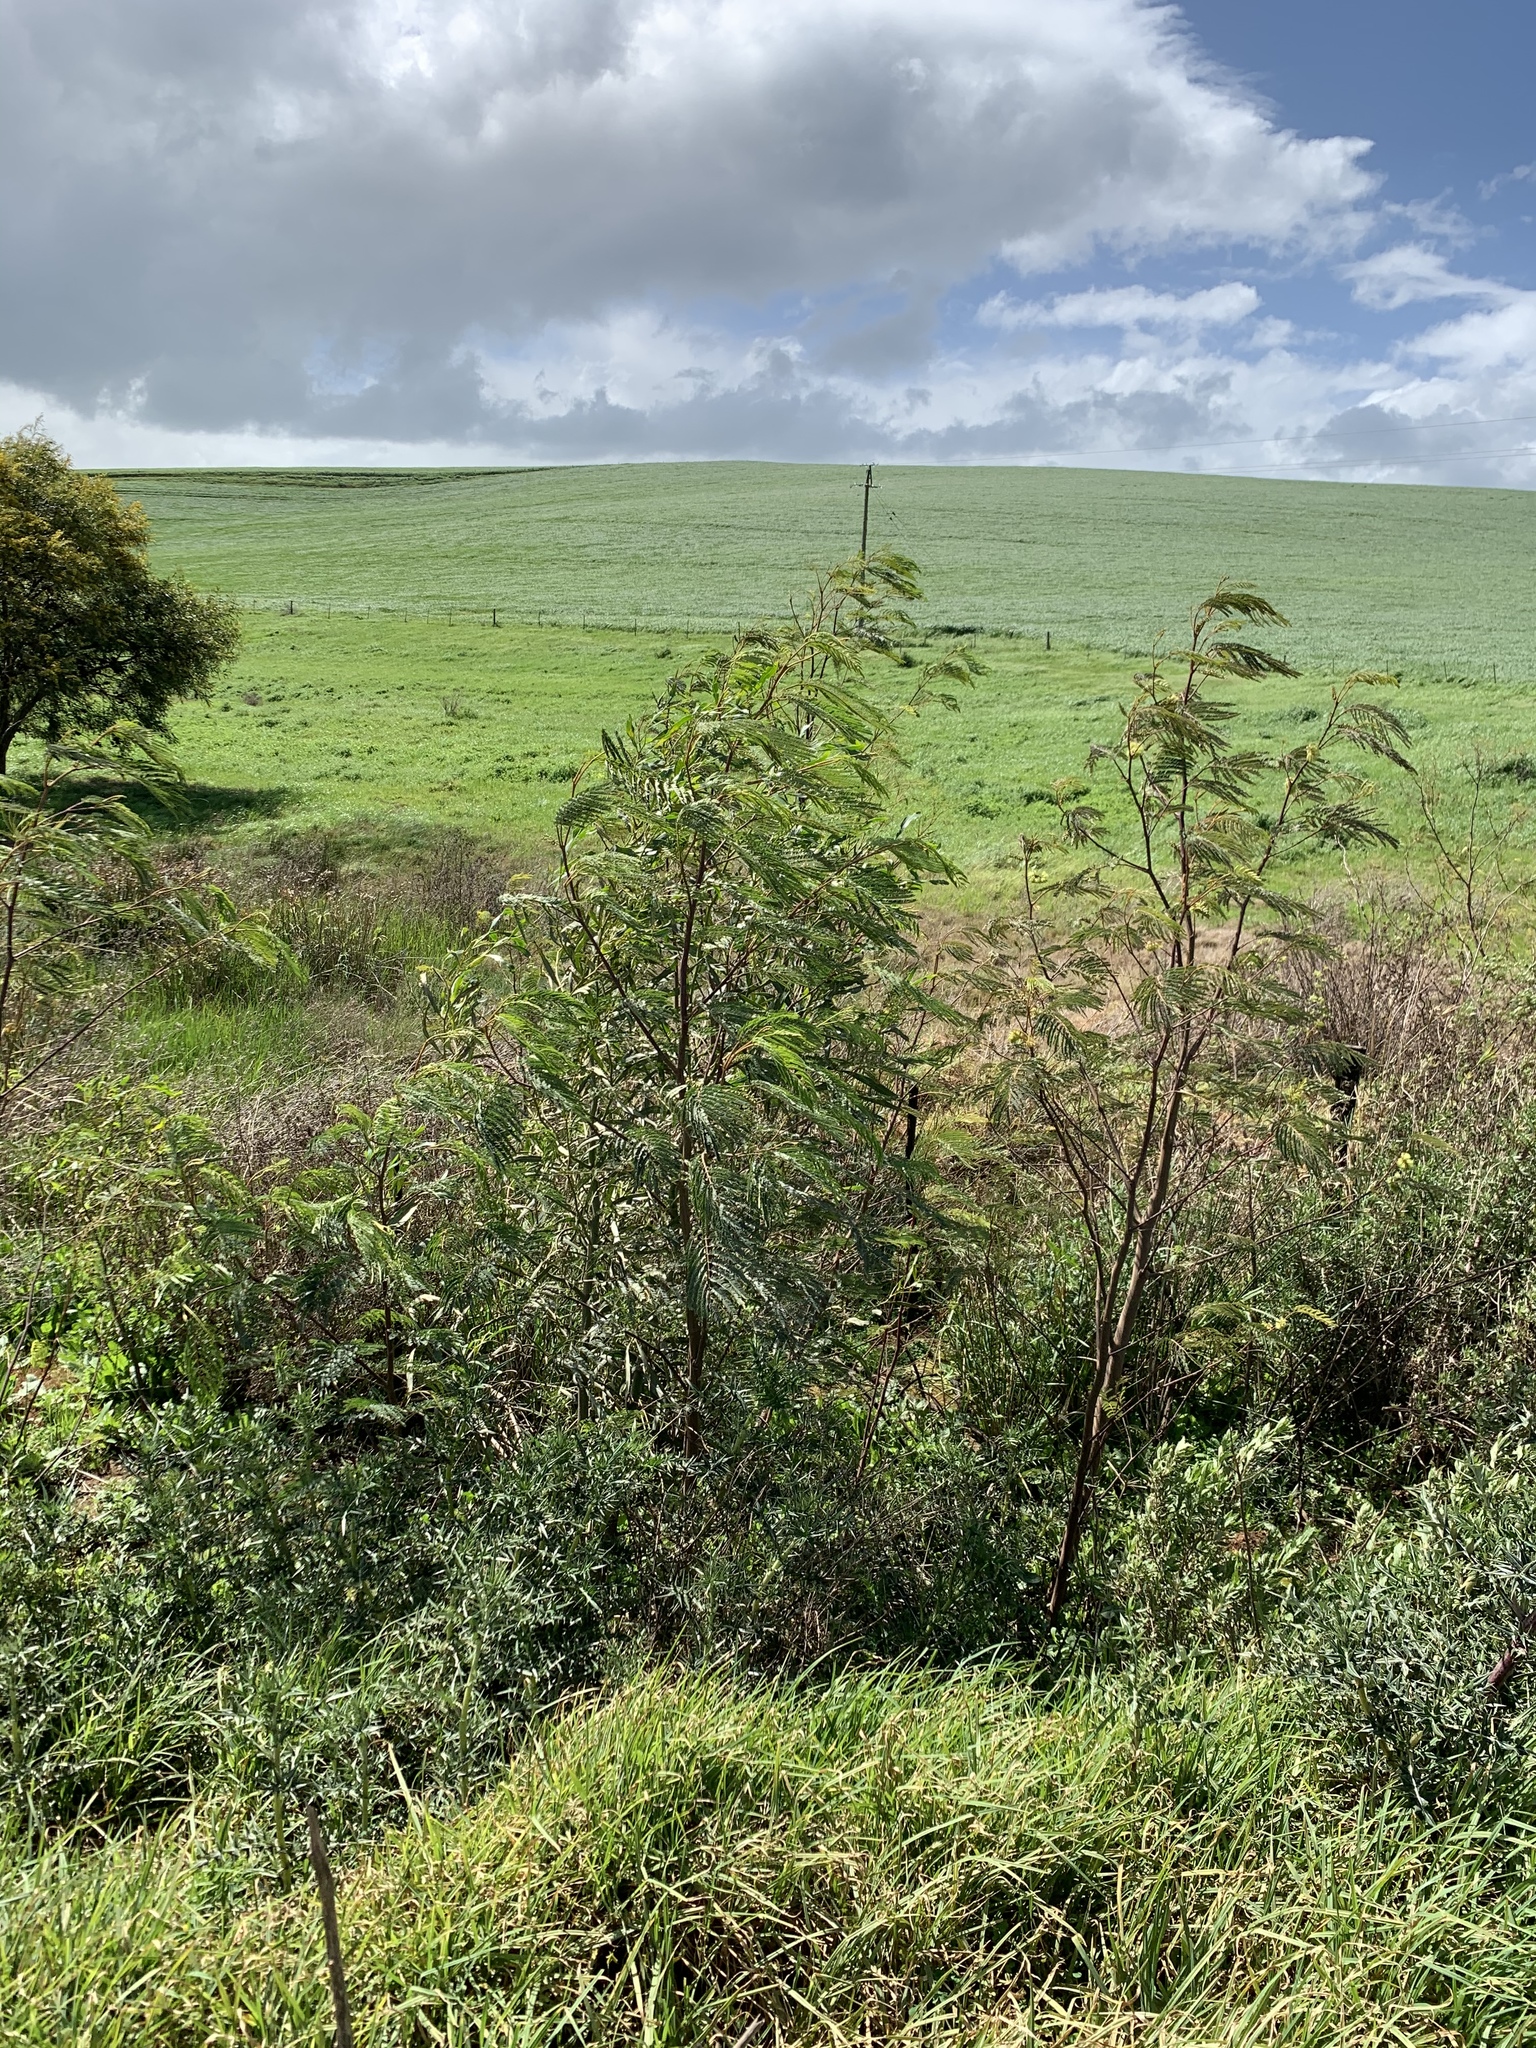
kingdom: Plantae
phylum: Tracheophyta
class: Magnoliopsida
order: Fabales
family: Fabaceae
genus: Paraserianthes
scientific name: Paraserianthes lophantha
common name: Plume albizia
